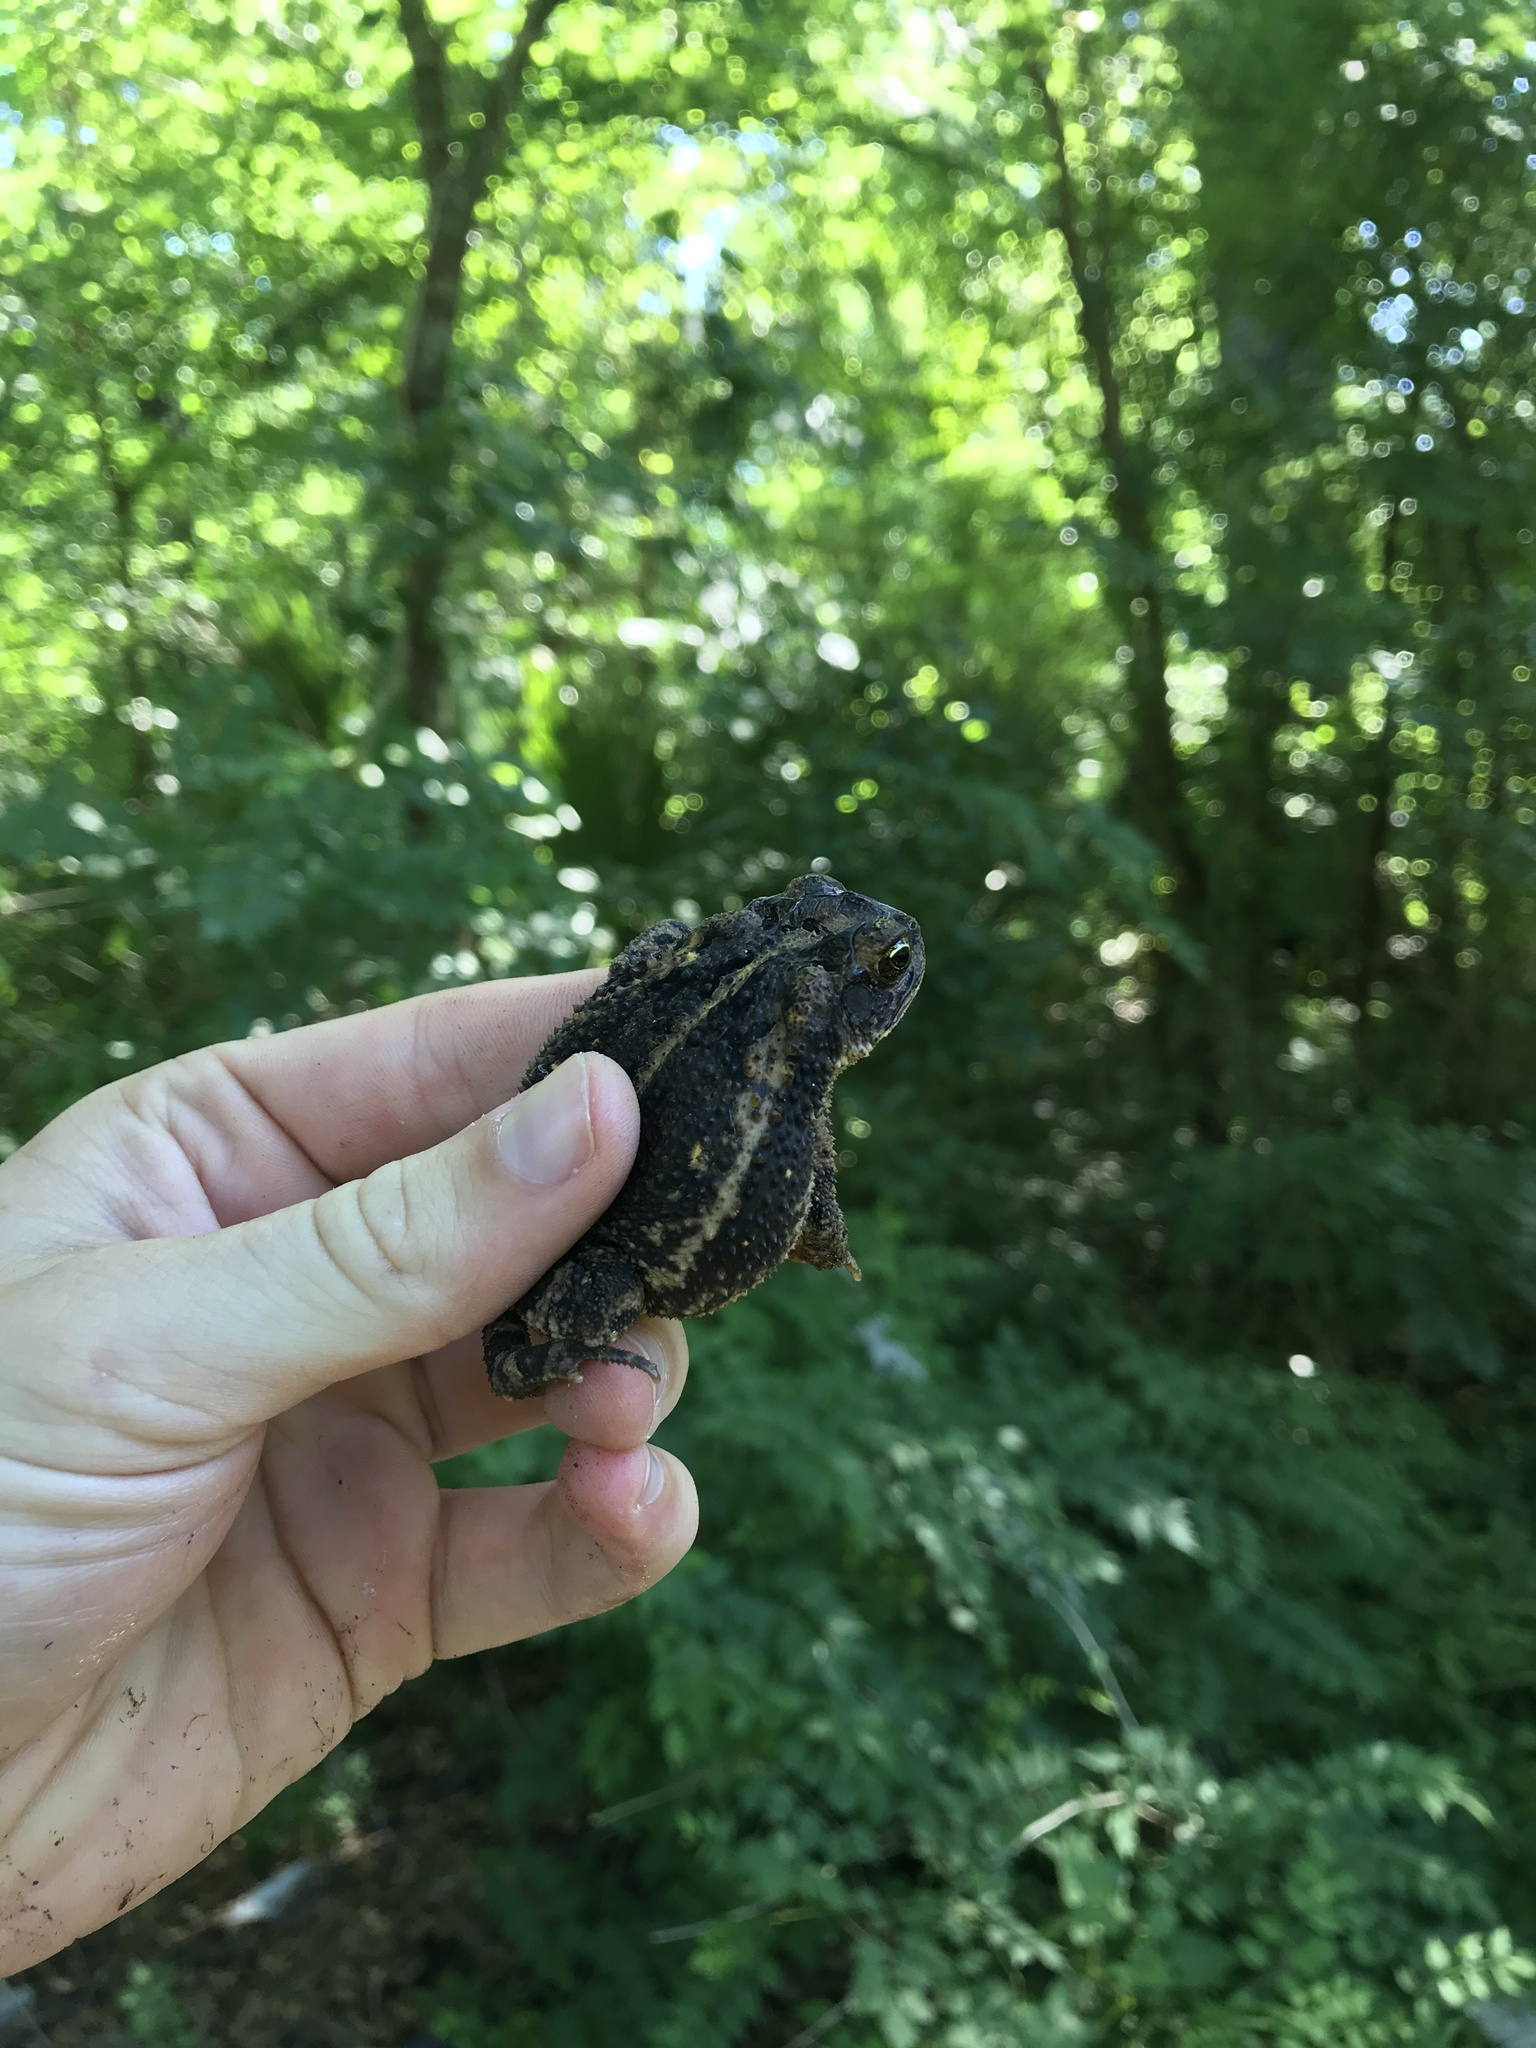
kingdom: Animalia
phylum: Chordata
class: Amphibia
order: Anura
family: Bufonidae
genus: Incilius
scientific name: Incilius nebulifer
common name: Gulf coast toad
